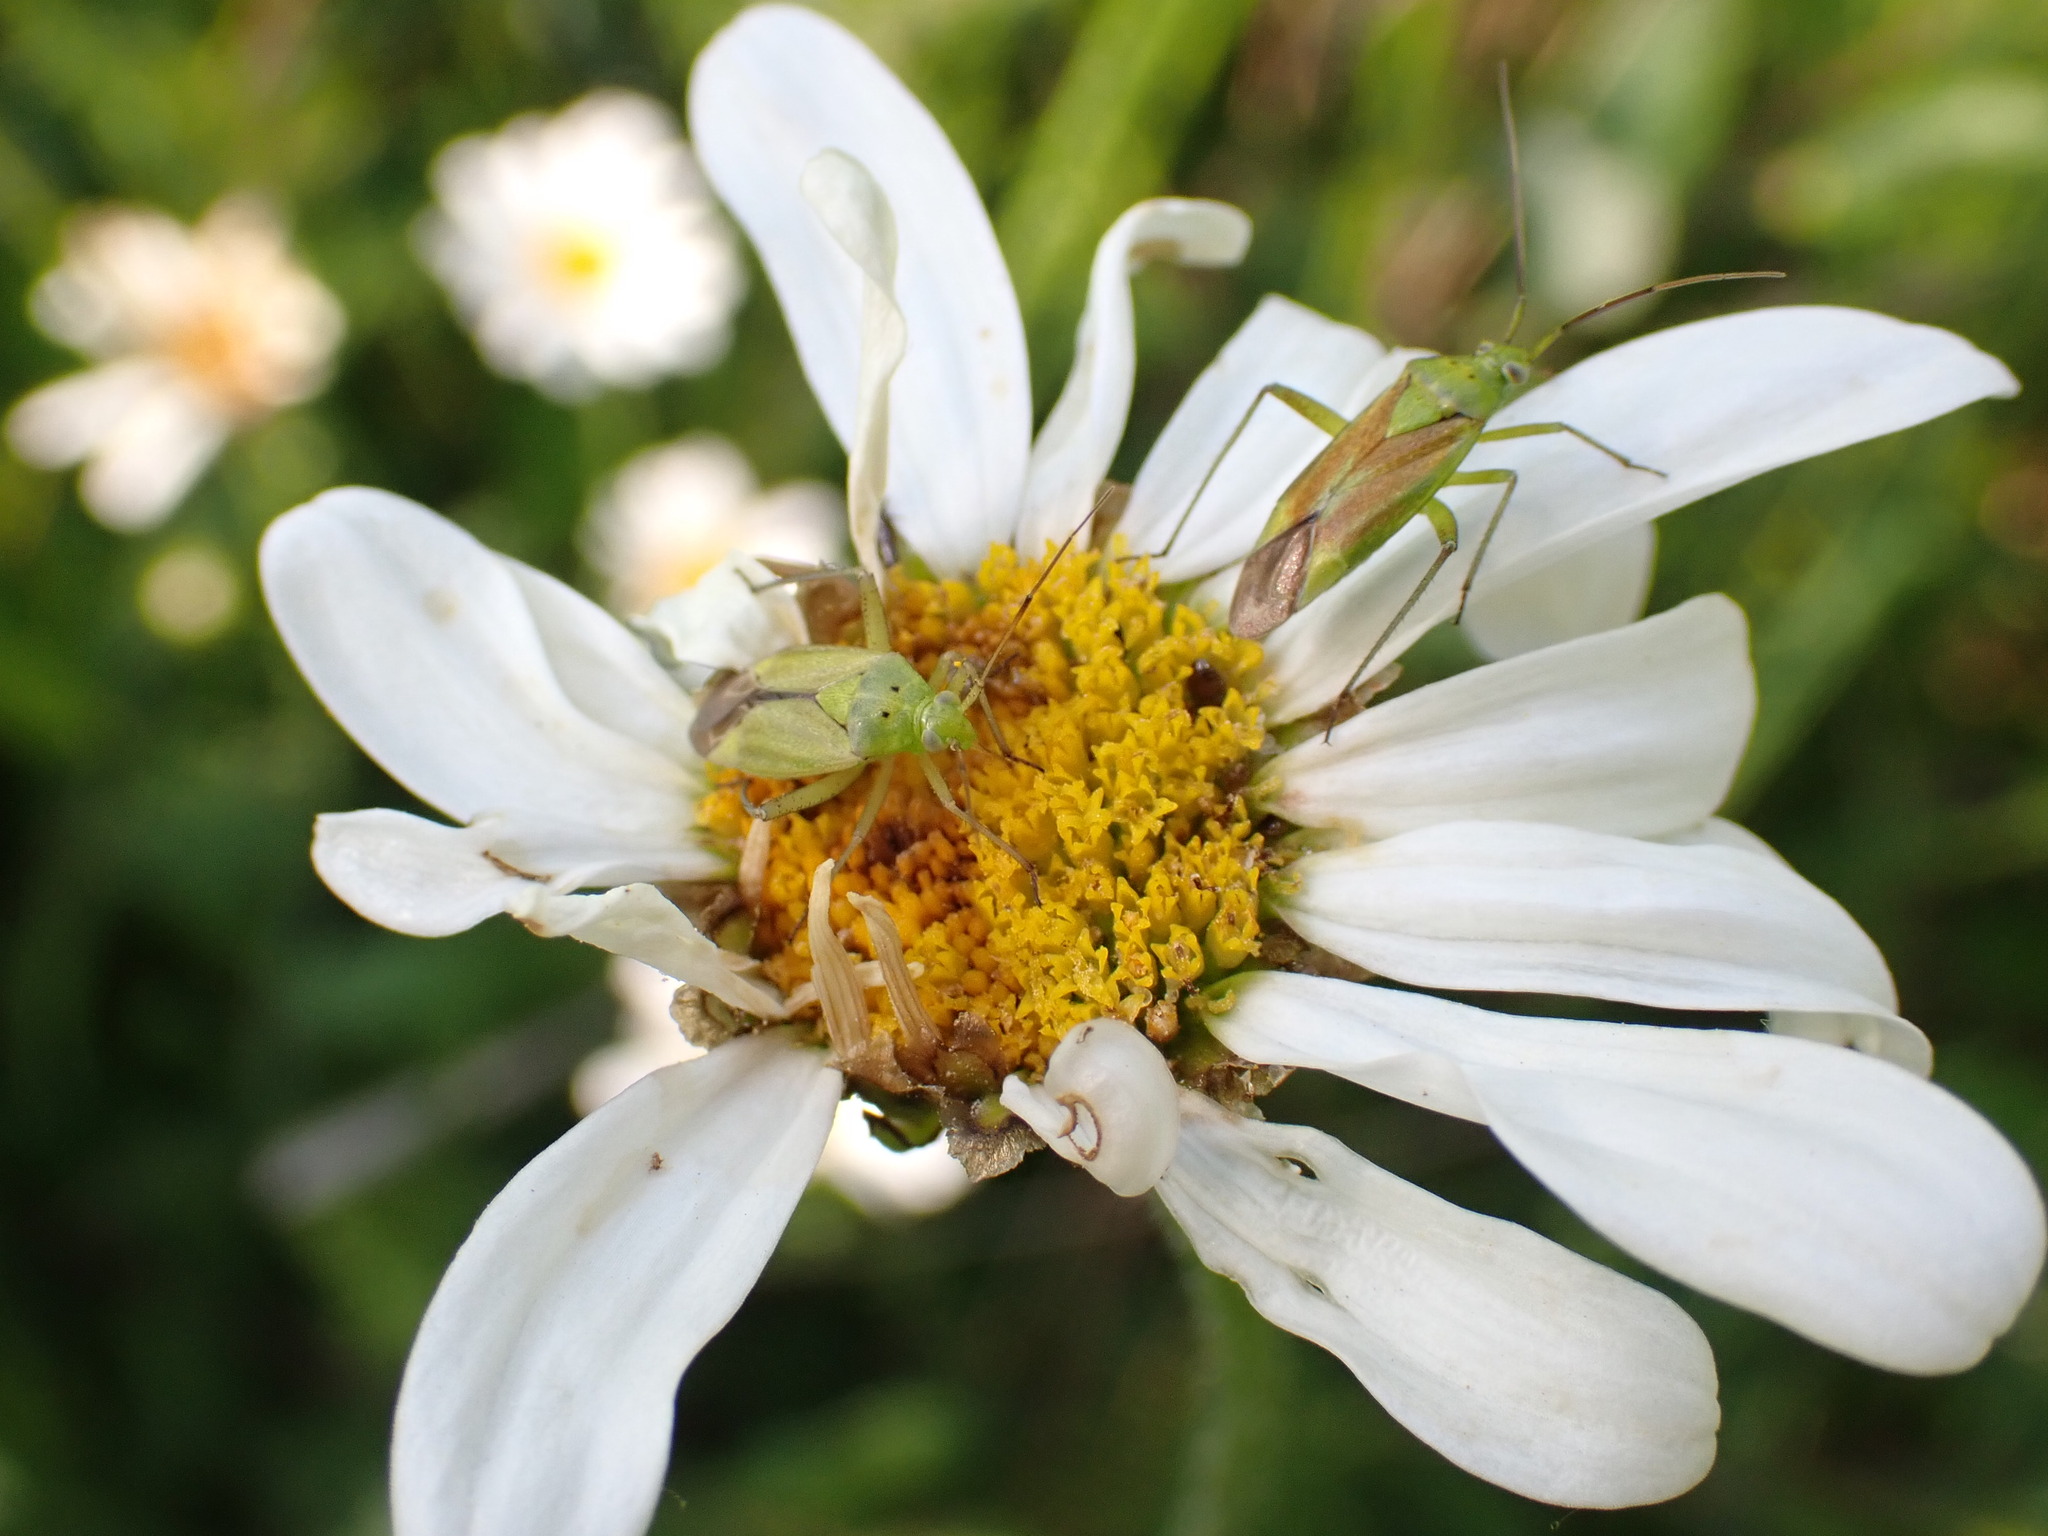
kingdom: Animalia
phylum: Arthropoda
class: Insecta
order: Hemiptera
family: Miridae
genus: Closterotomus
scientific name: Closterotomus norvegicus
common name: Plant bug
